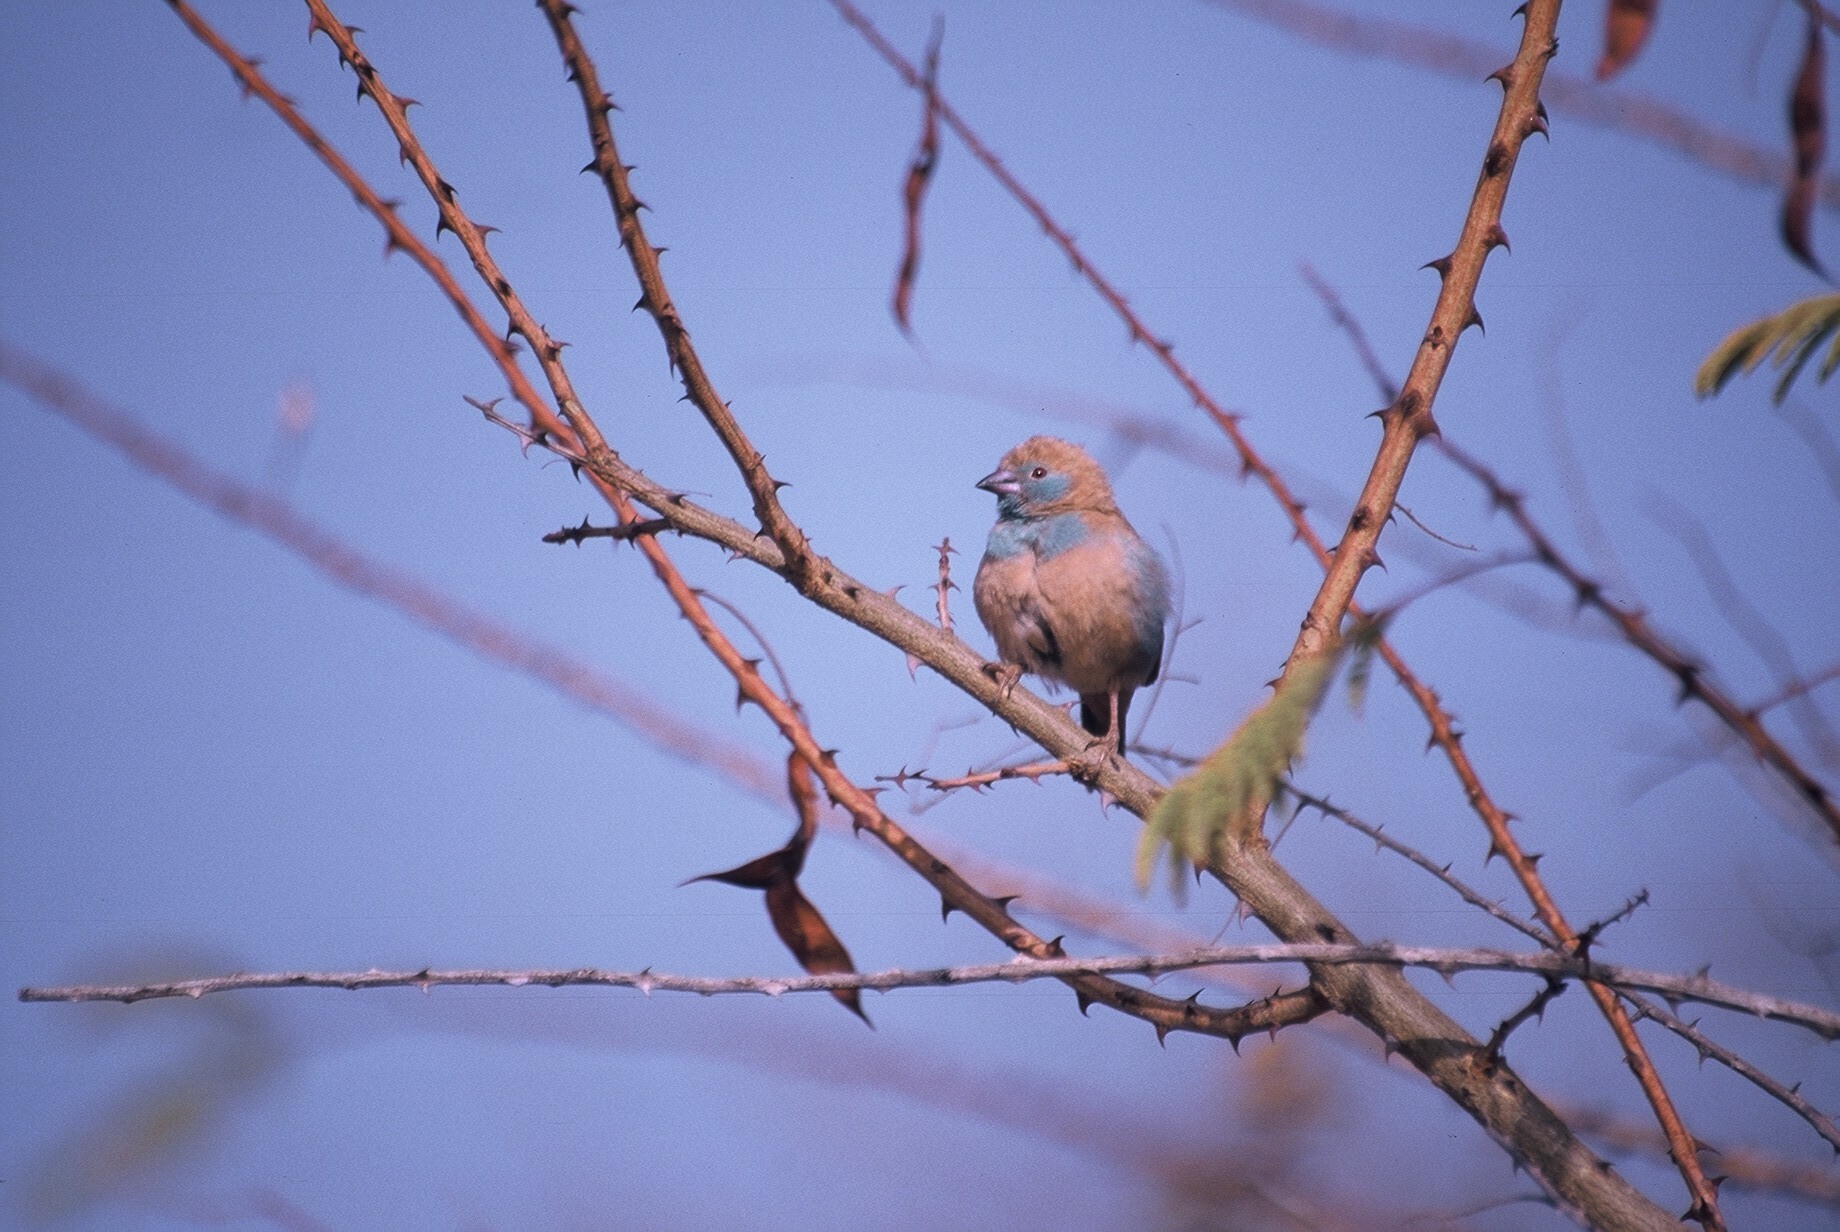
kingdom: Animalia
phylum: Chordata
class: Aves
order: Passeriformes
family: Estrildidae
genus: Uraeginthus
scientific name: Uraeginthus bengalus
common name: Red-cheeked cordon-bleu
